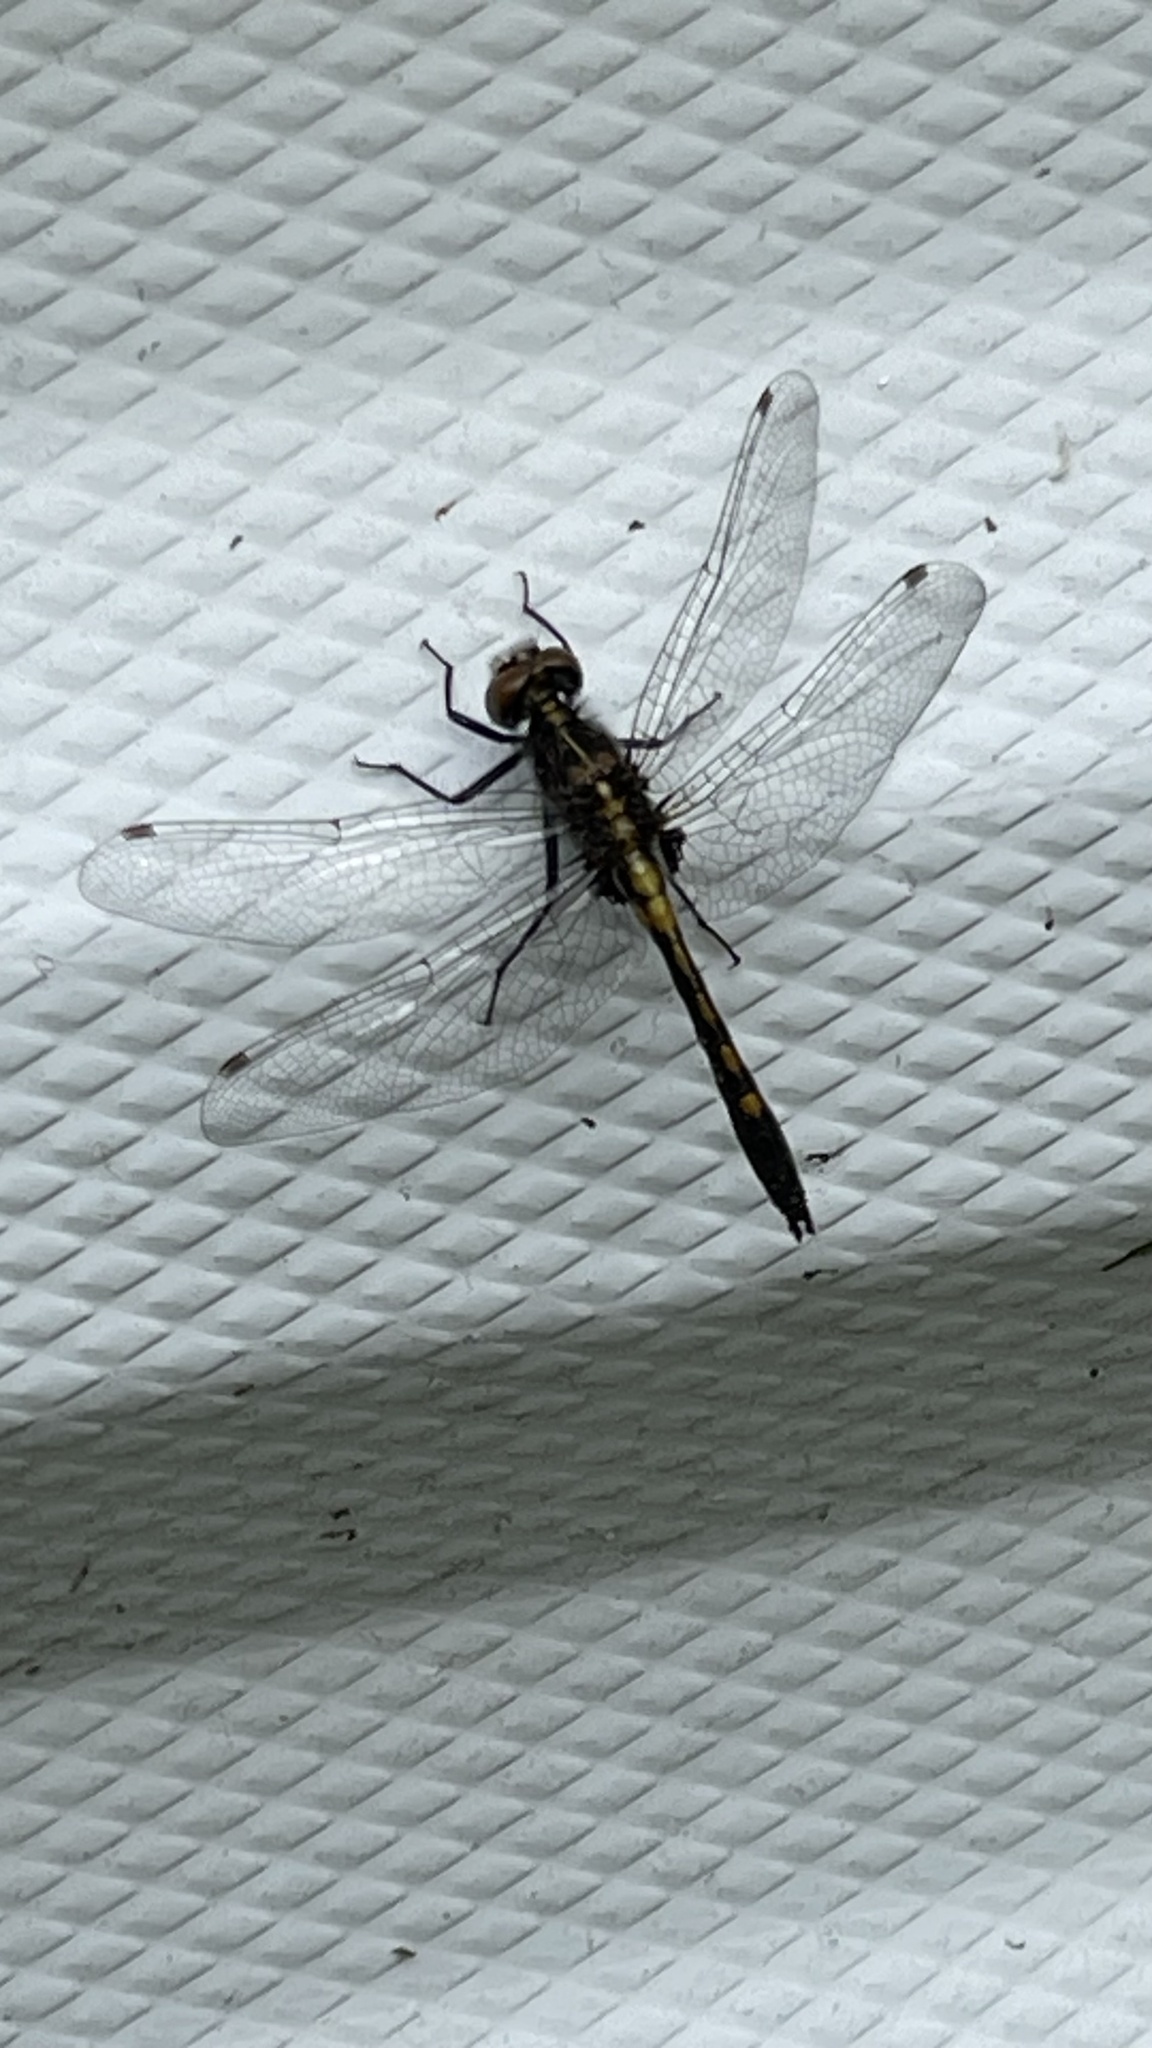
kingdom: Animalia
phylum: Arthropoda
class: Insecta
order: Odonata
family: Libellulidae
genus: Leucorrhinia
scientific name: Leucorrhinia intacta
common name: Dot-tailed whiteface
